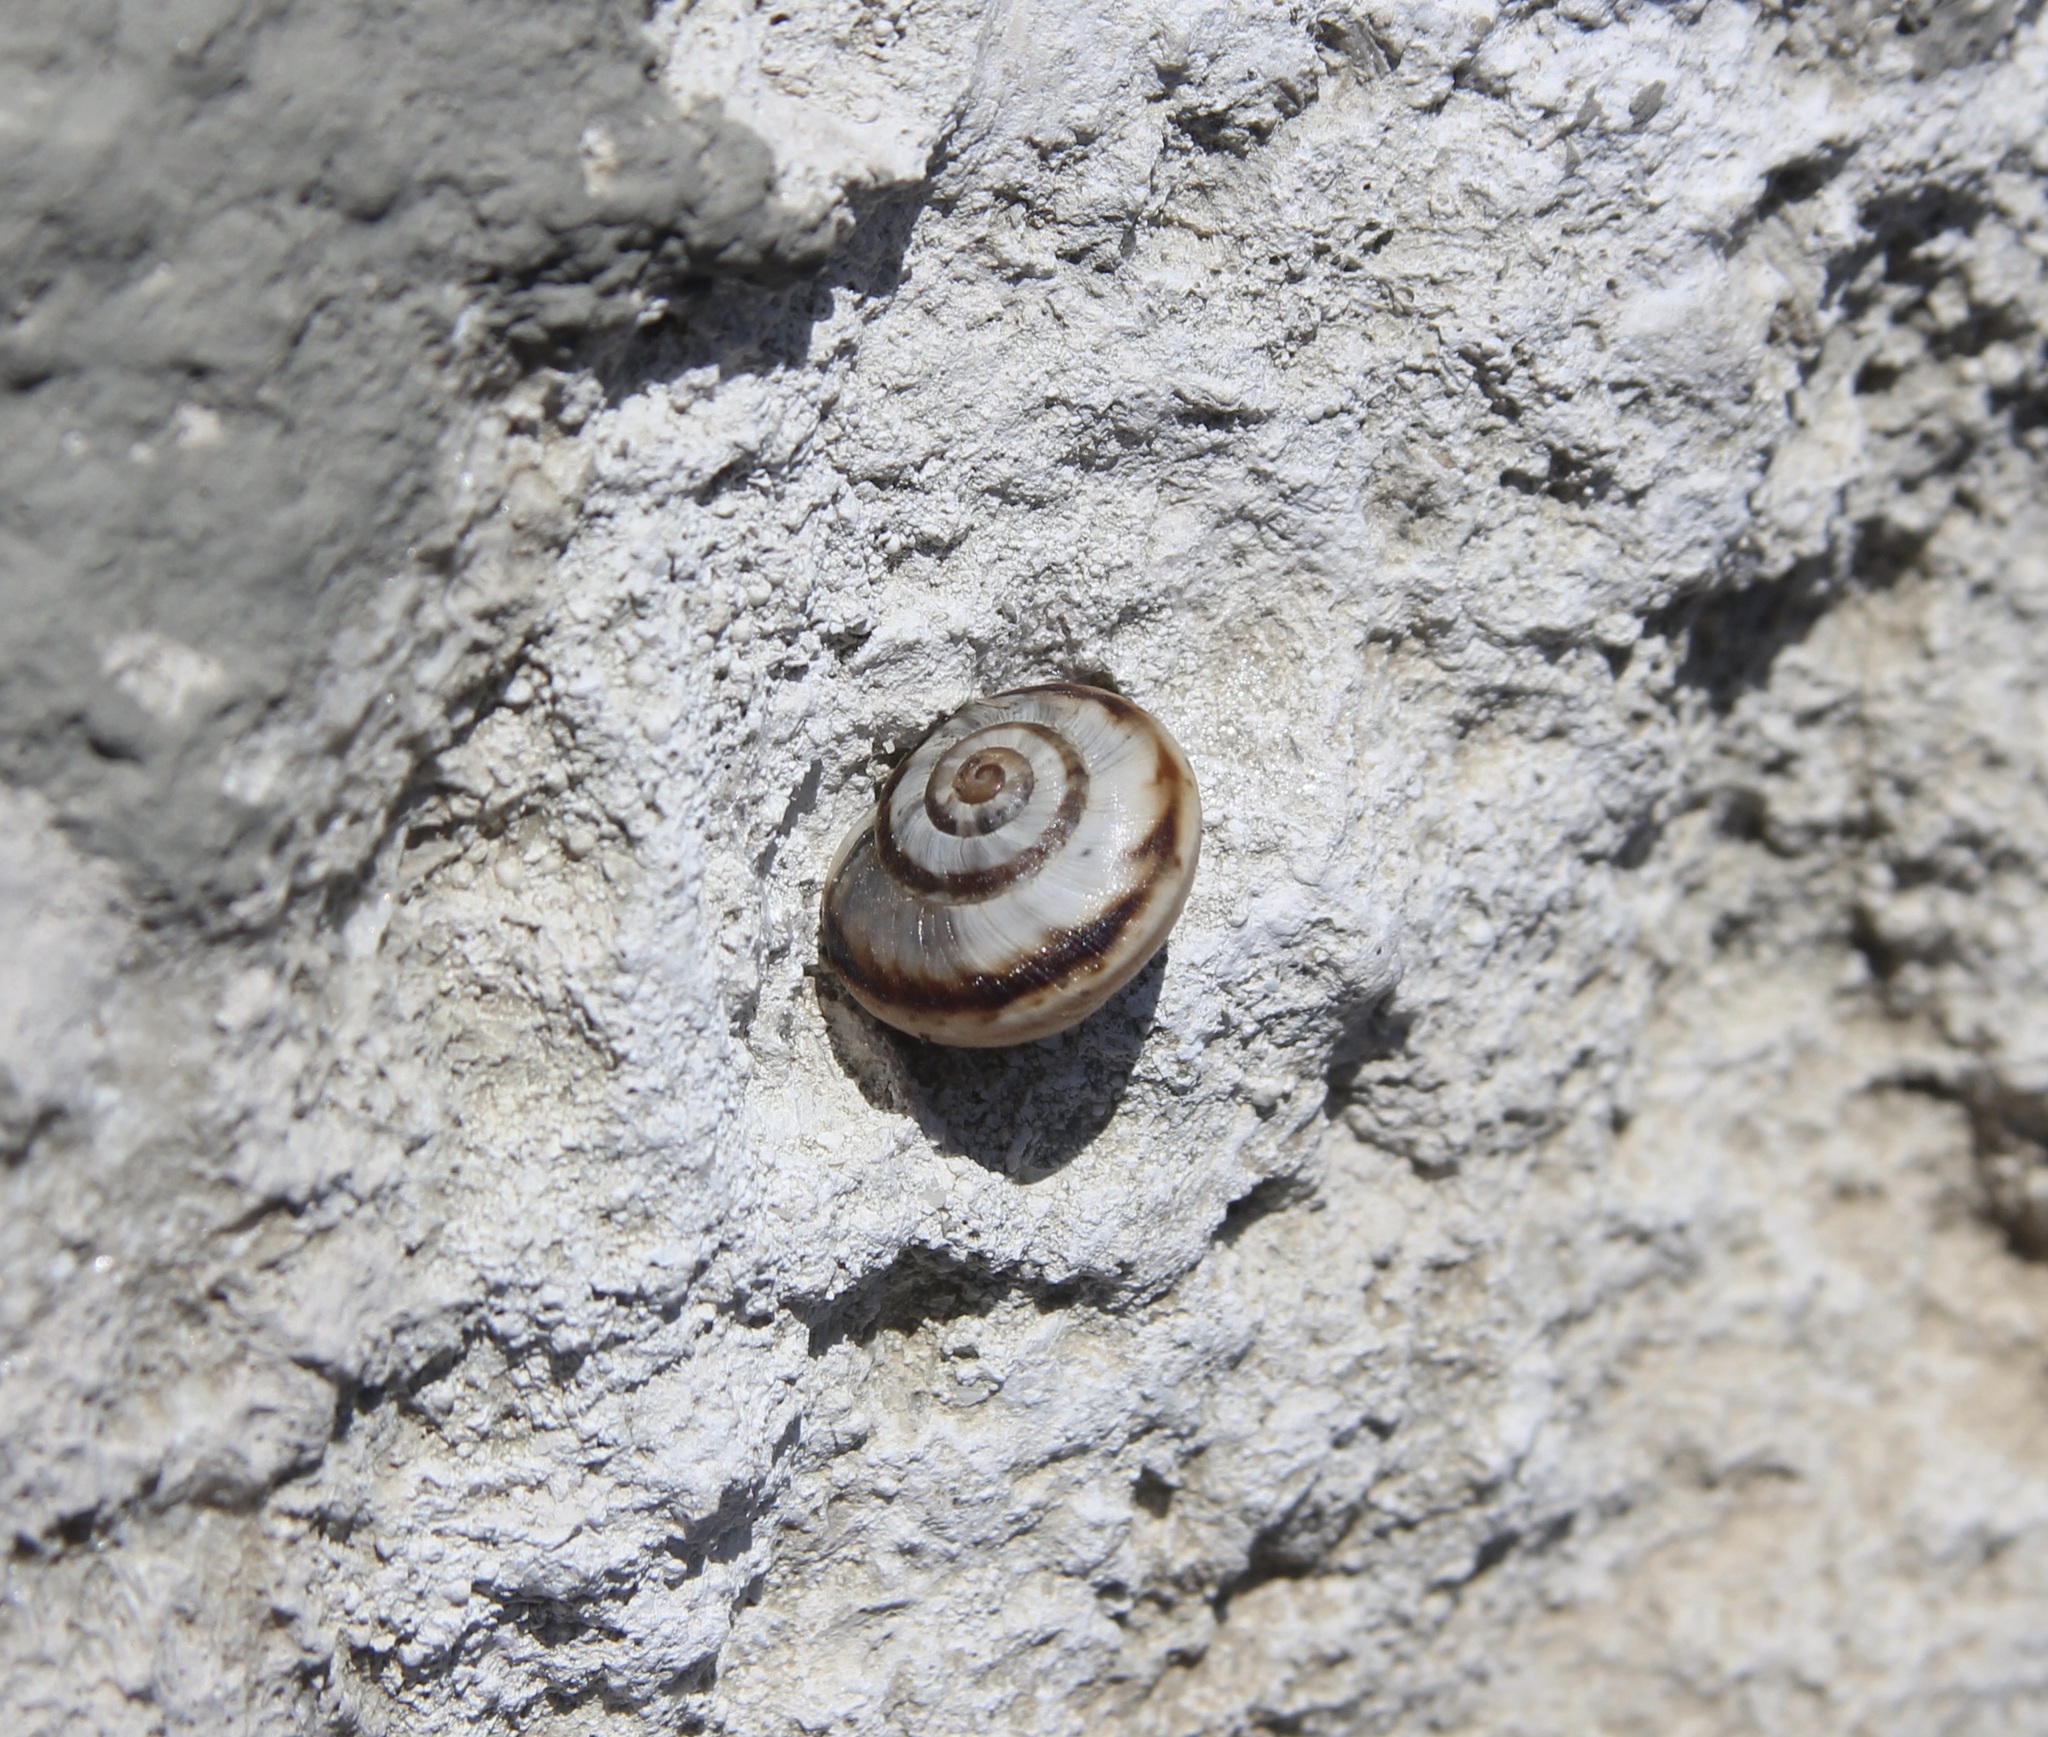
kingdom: Animalia
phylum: Mollusca
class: Gastropoda
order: Stylommatophora
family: Helicidae
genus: Theba
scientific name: Theba pisana
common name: White snail
